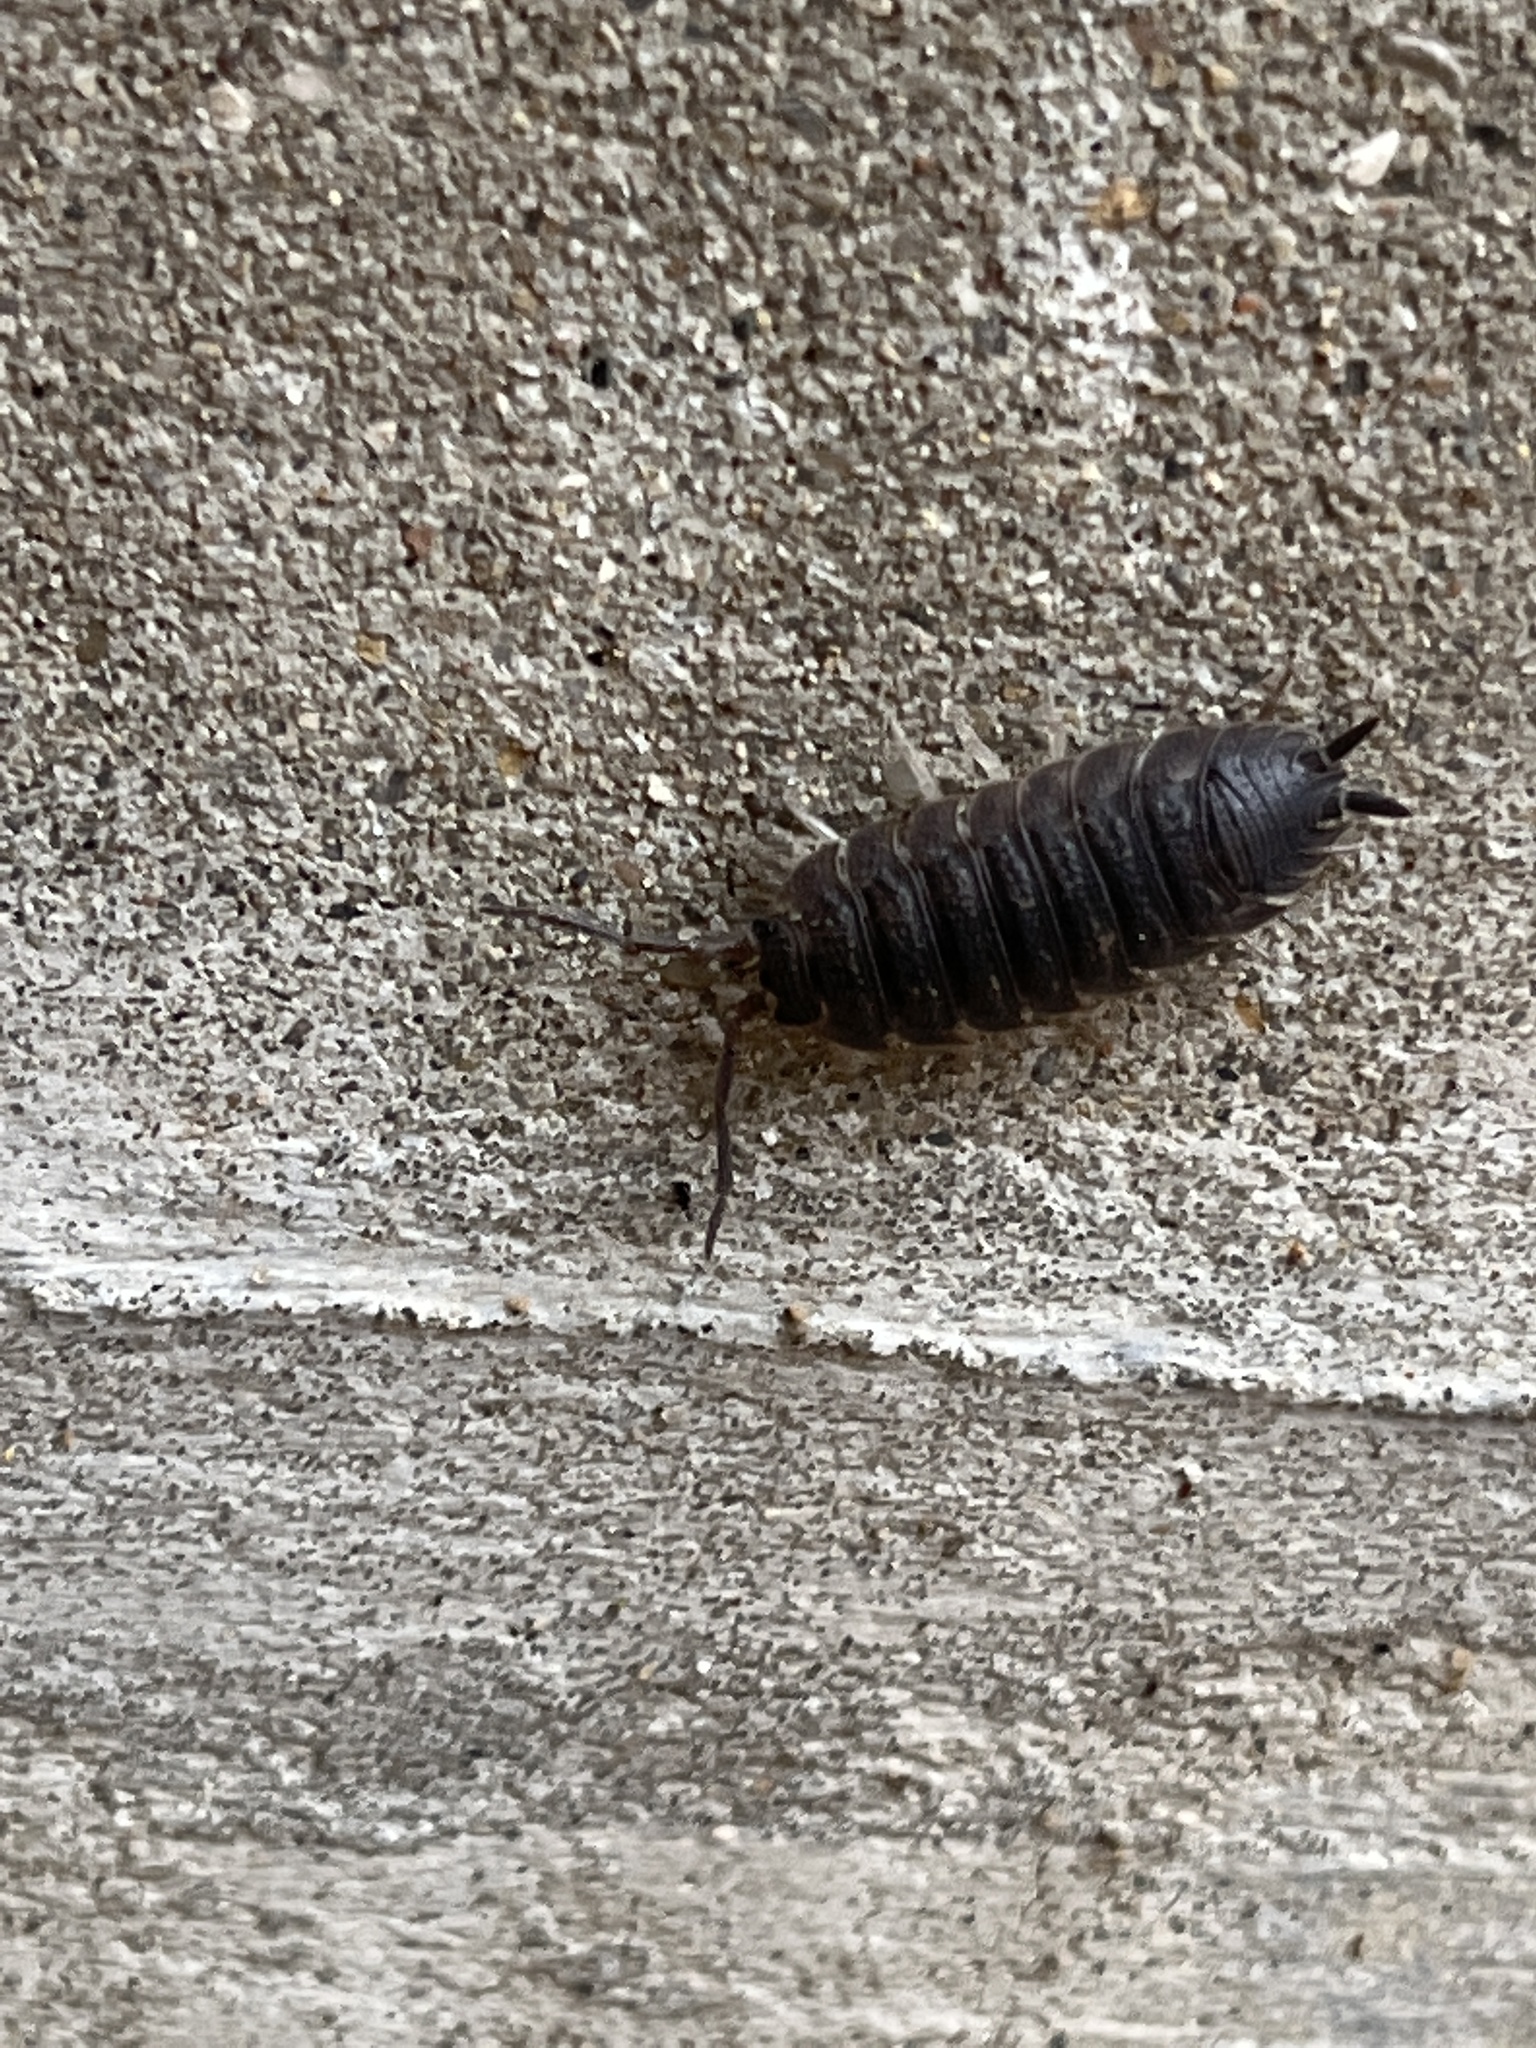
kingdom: Animalia
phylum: Arthropoda
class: Malacostraca
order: Isopoda
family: Porcellionidae
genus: Porcellio
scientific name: Porcellio scaber
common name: Common rough woodlouse
